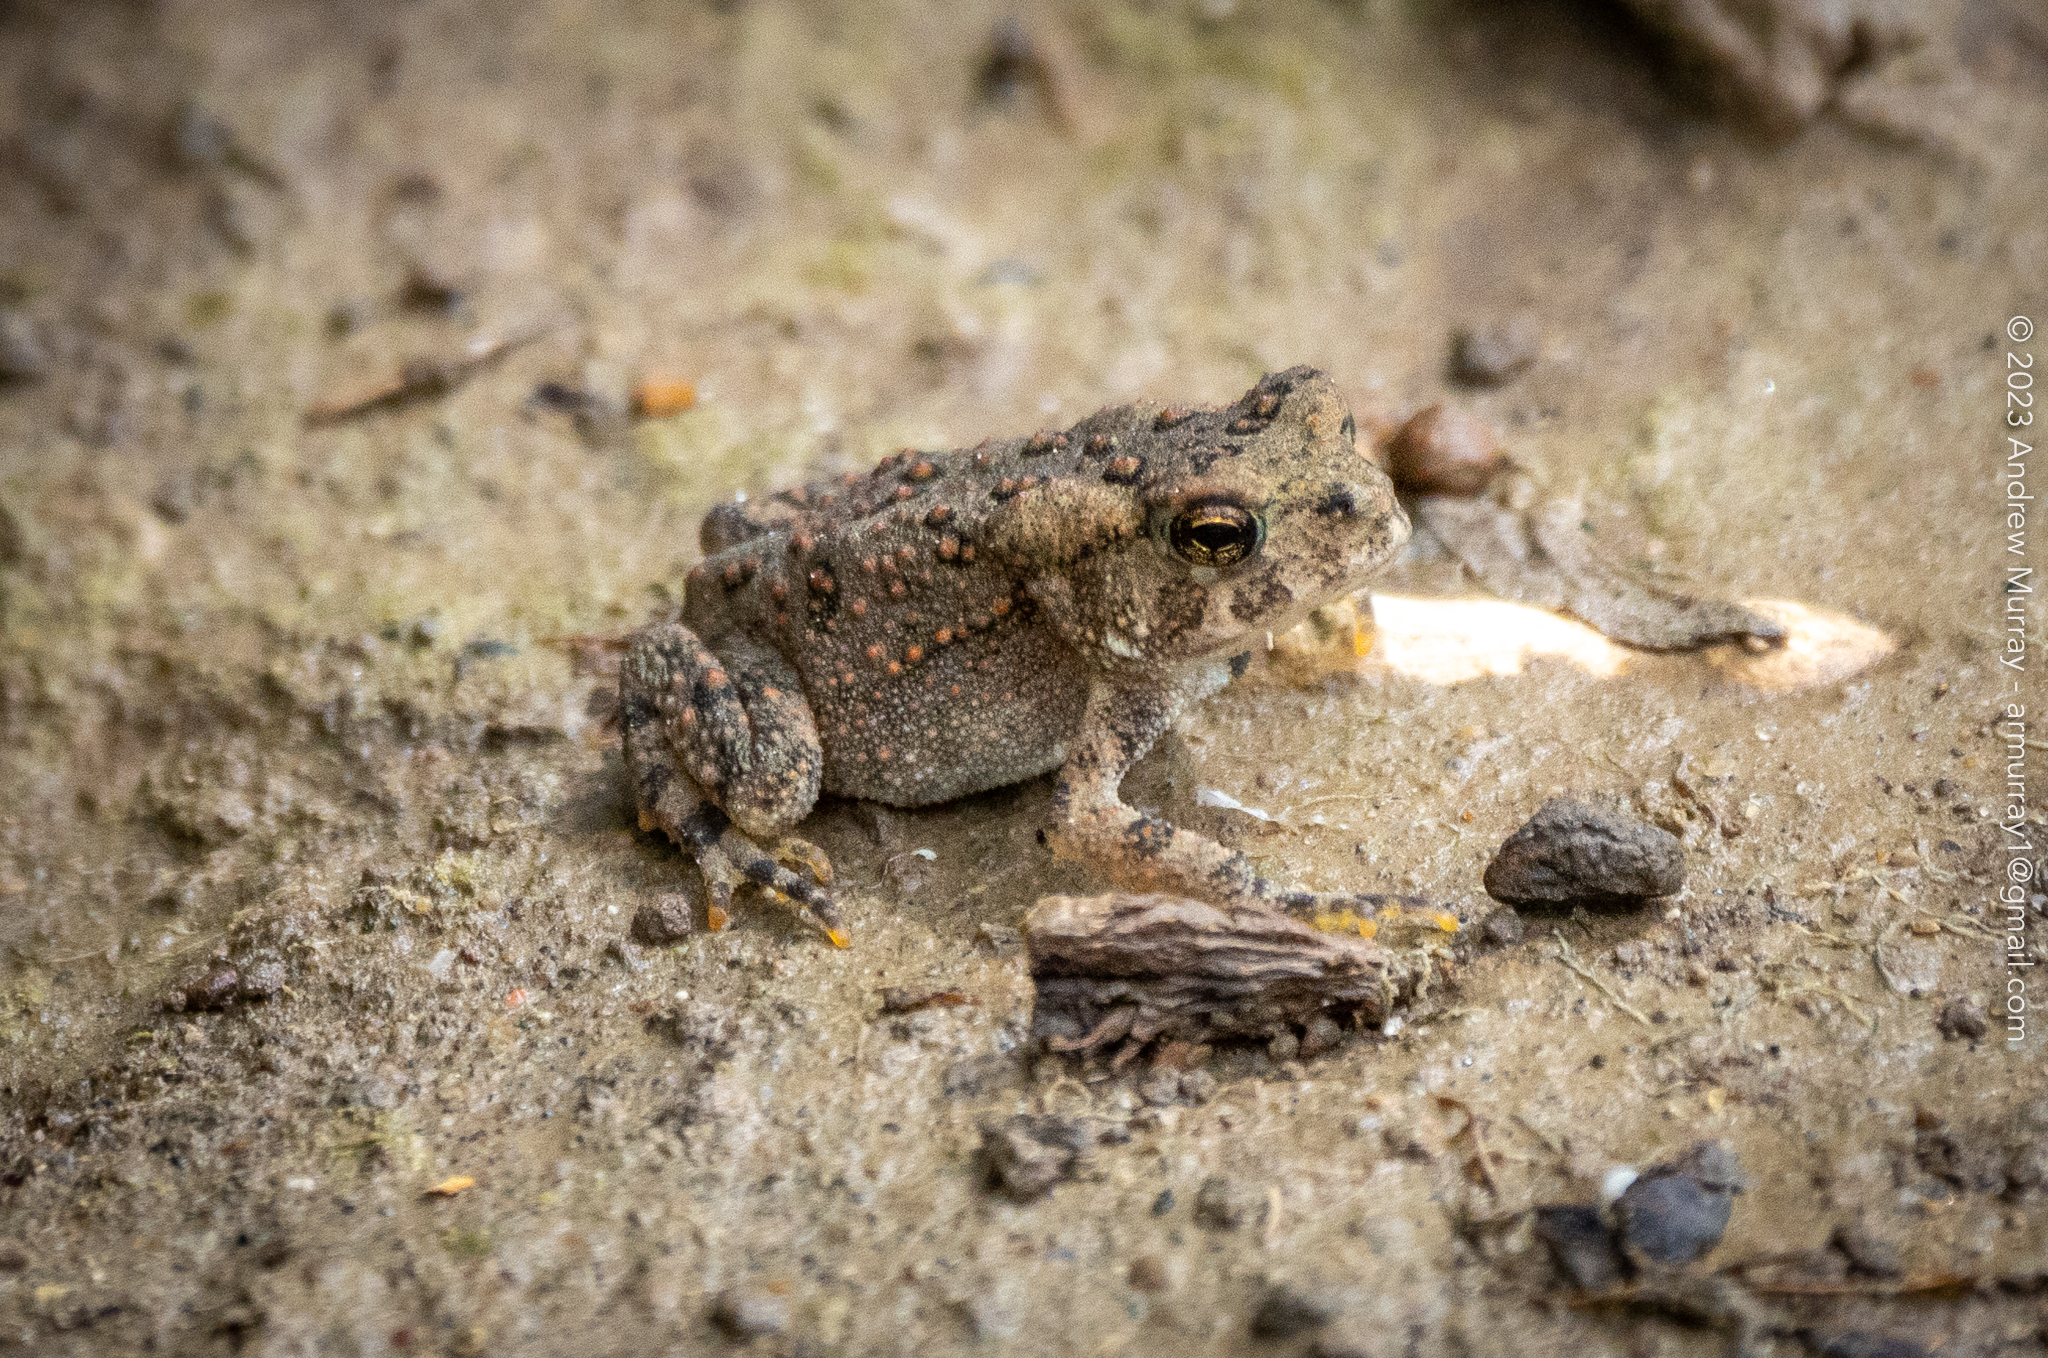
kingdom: Animalia
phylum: Chordata
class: Amphibia
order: Anura
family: Bufonidae
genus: Anaxyrus
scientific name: Anaxyrus americanus
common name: American toad
